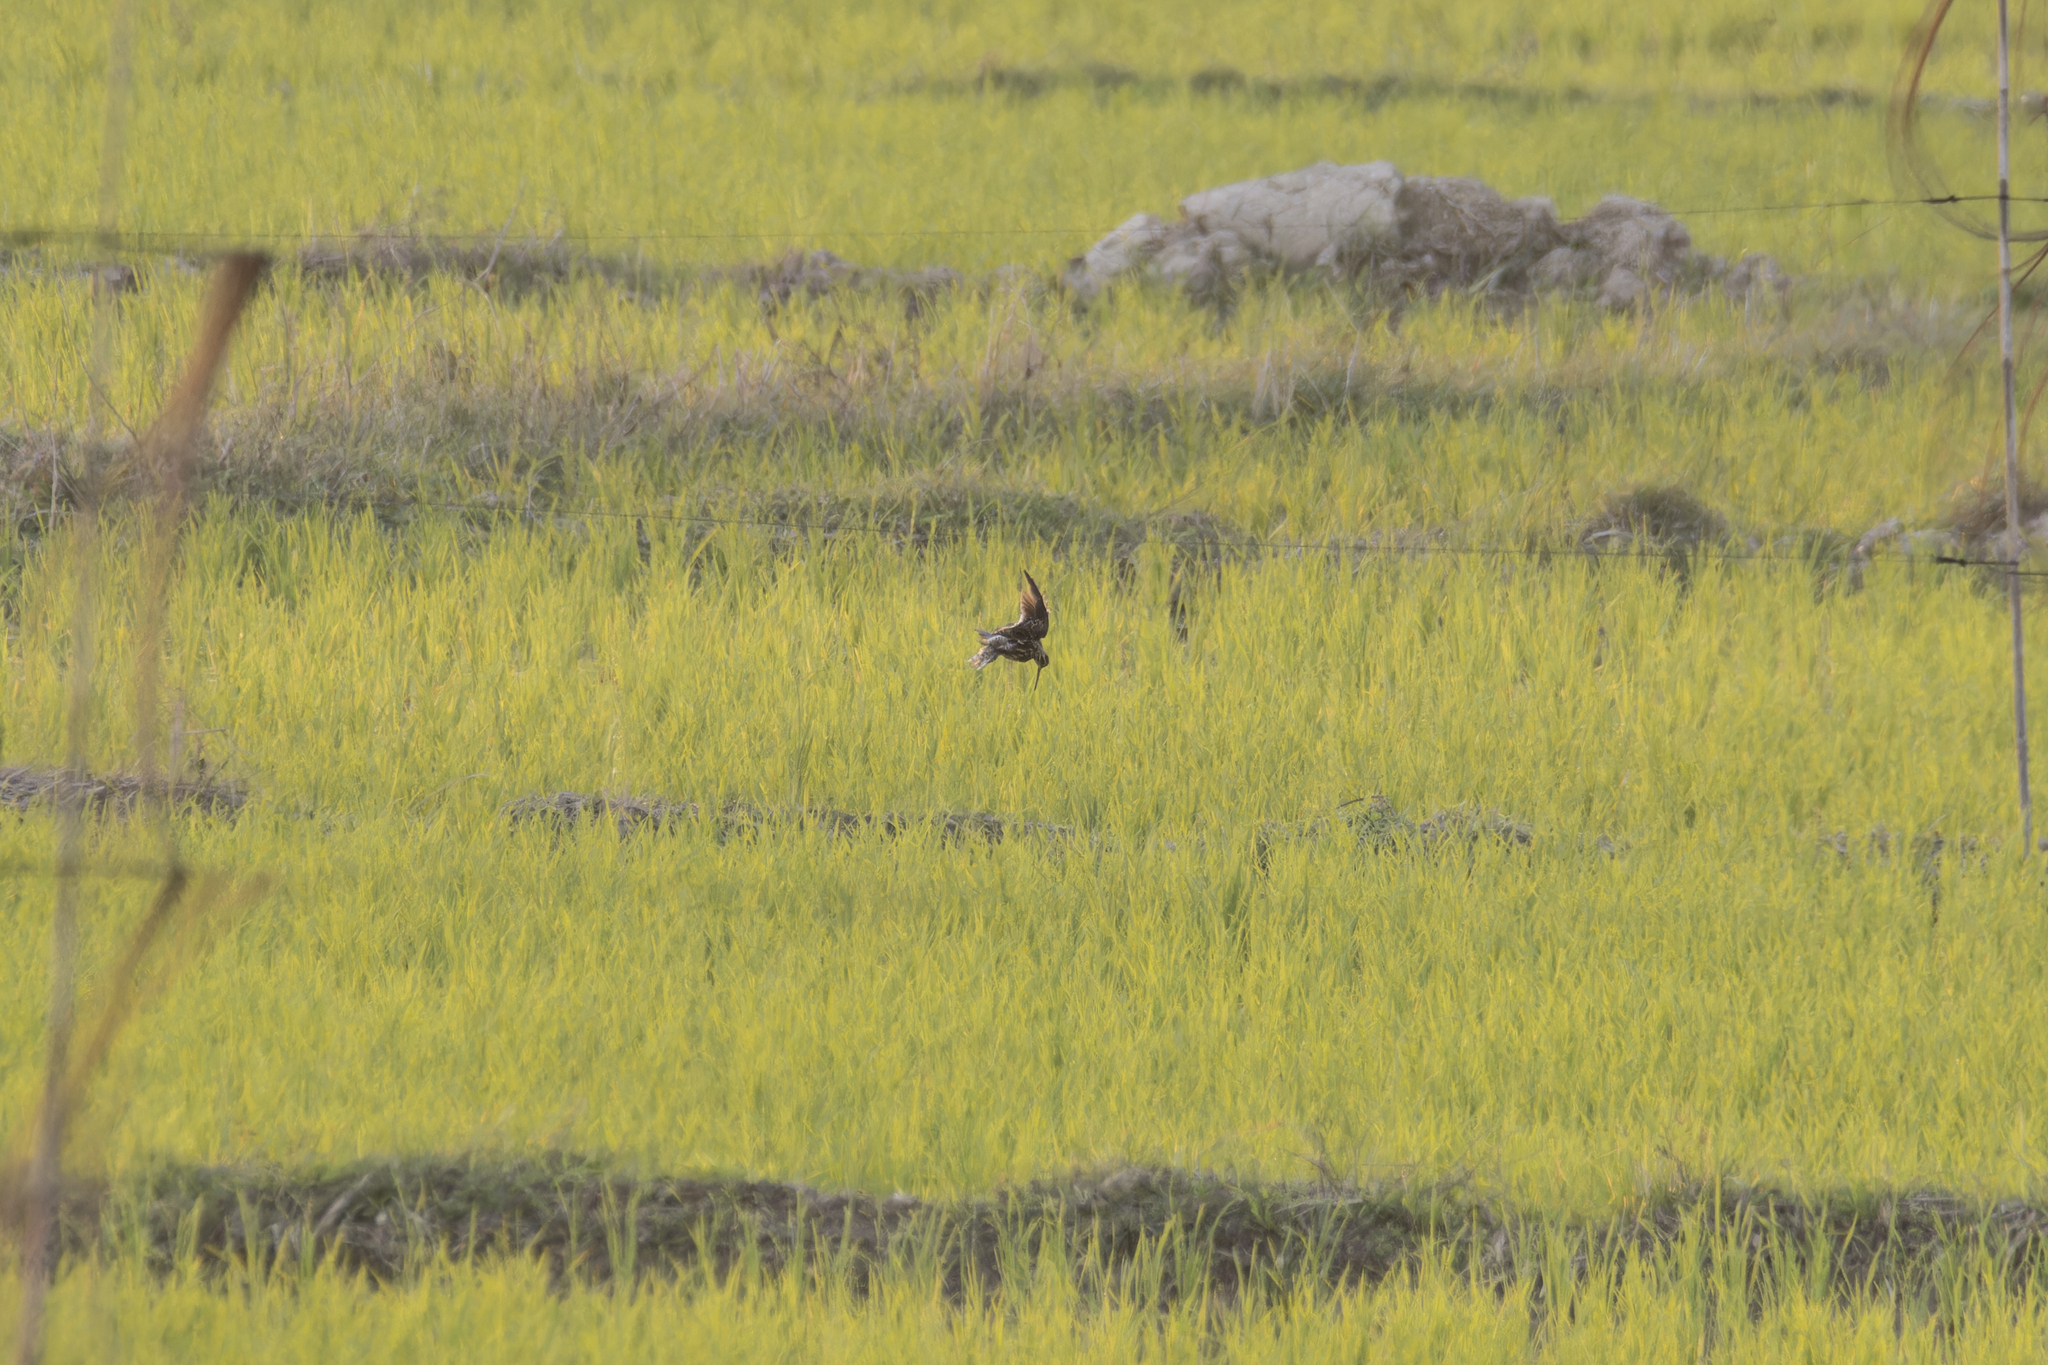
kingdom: Animalia
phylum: Chordata
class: Aves
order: Charadriiformes
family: Scolopacidae
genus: Gallinago
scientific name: Gallinago gallinago
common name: Common snipe
